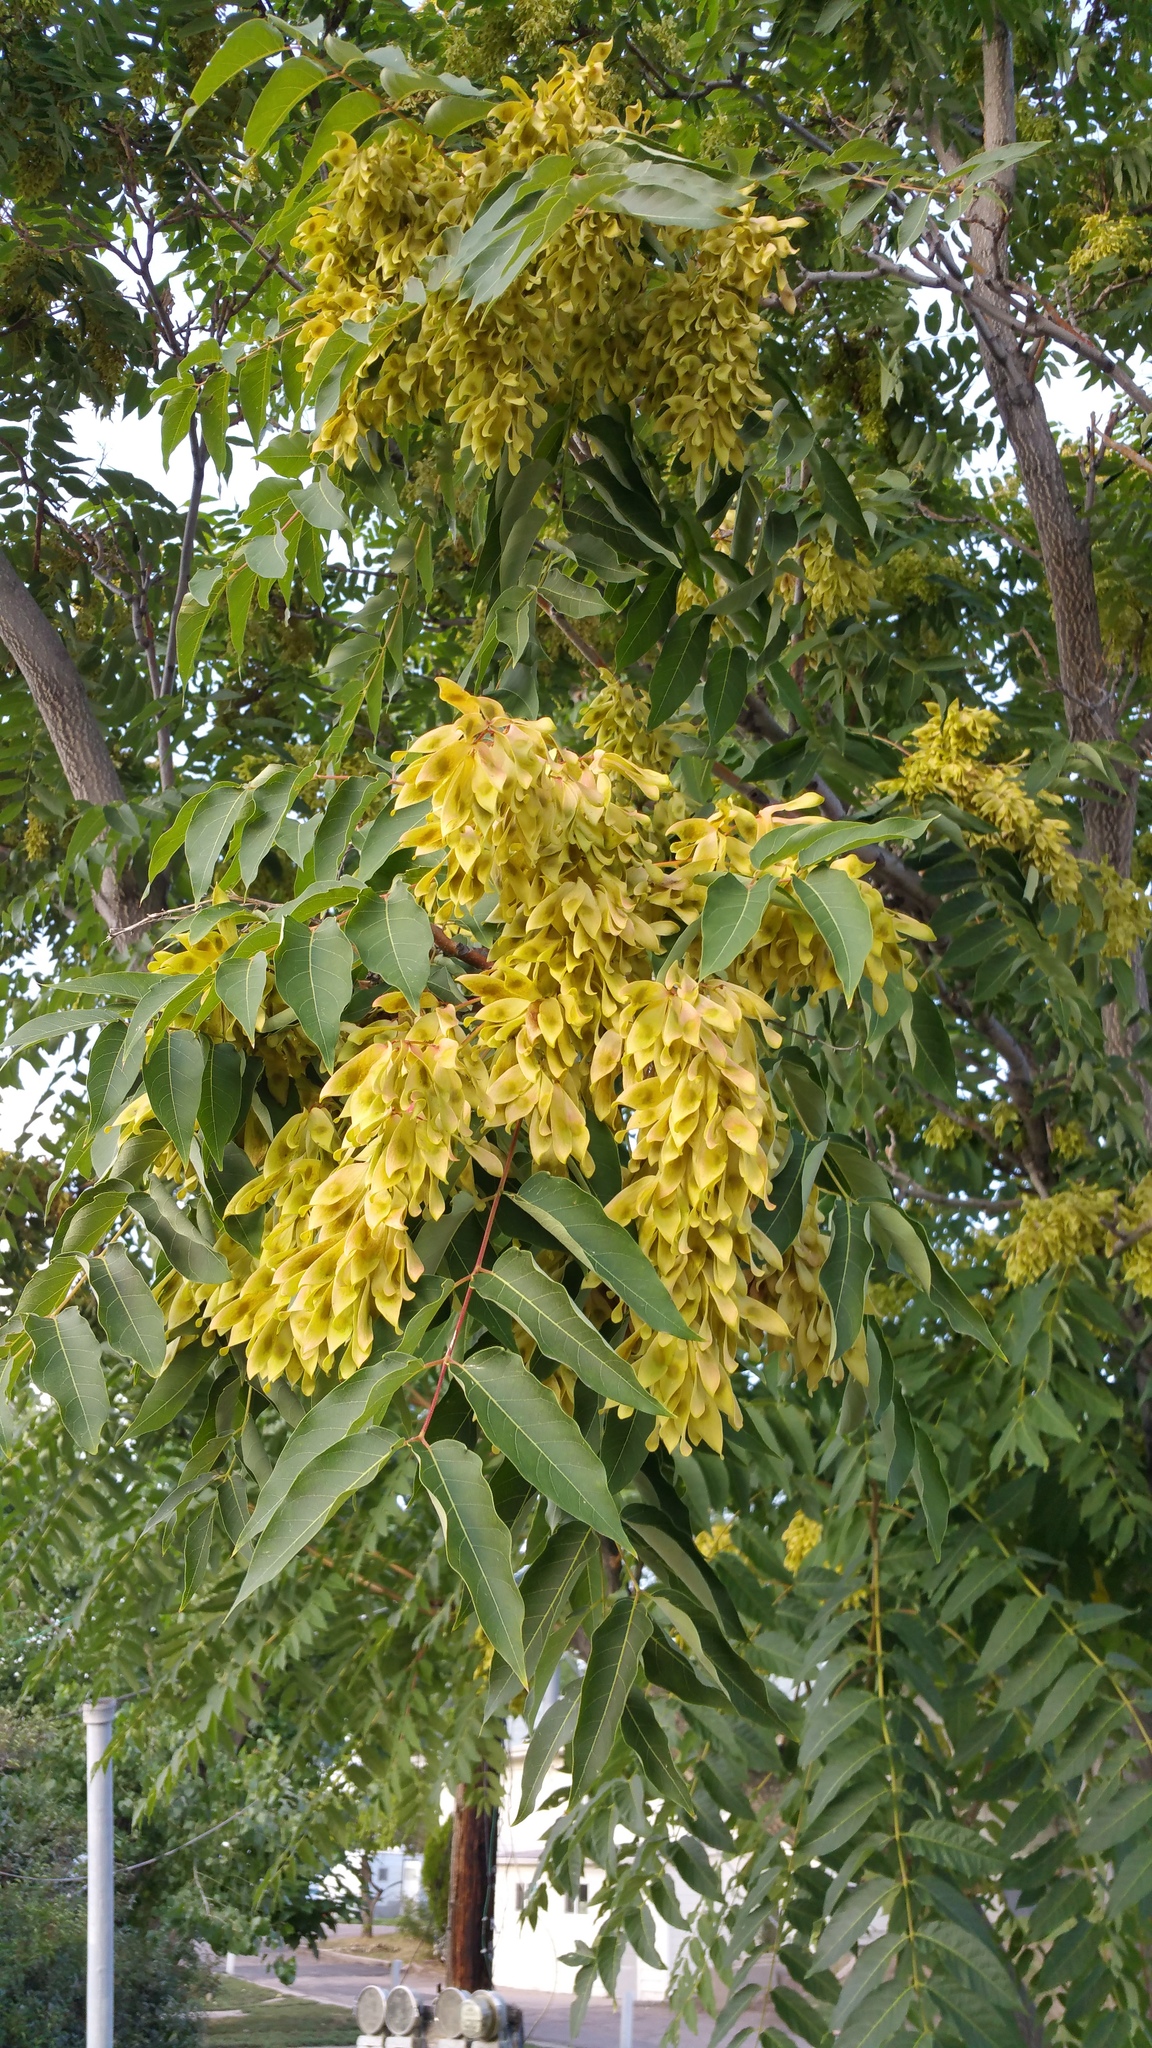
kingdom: Plantae
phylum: Tracheophyta
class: Magnoliopsida
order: Sapindales
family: Simaroubaceae
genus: Ailanthus
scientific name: Ailanthus altissima
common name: Tree-of-heaven
